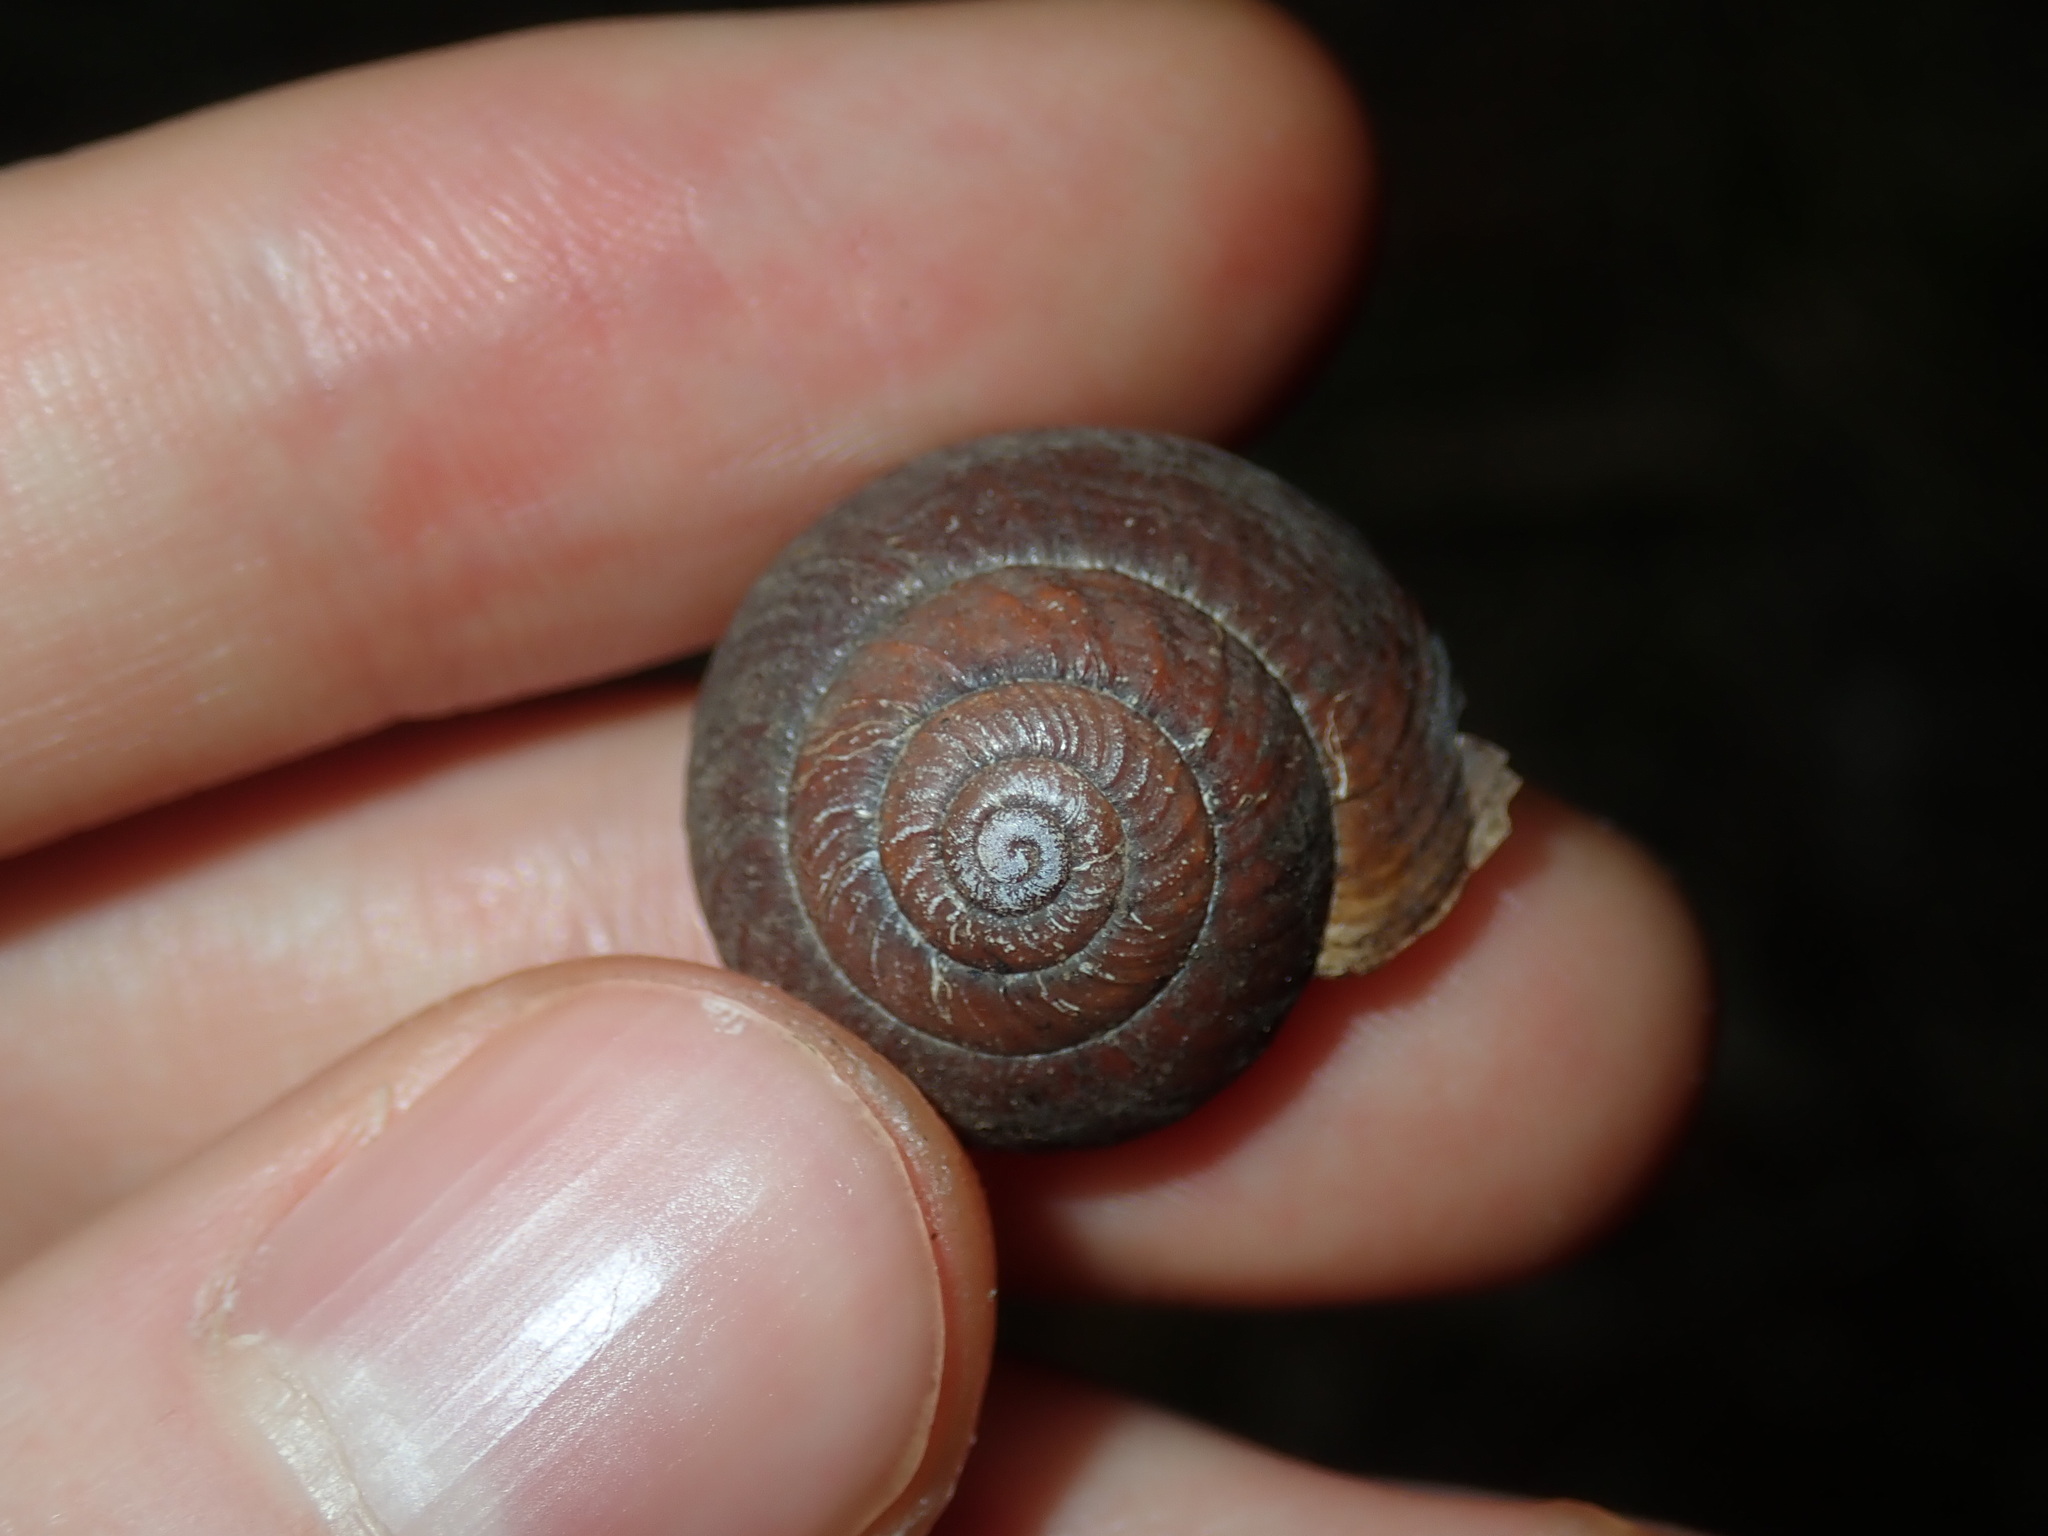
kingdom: Animalia
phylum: Mollusca
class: Gastropoda
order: Stylommatophora
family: Camaenidae
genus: Sauroconcha
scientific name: Sauroconcha sheai
